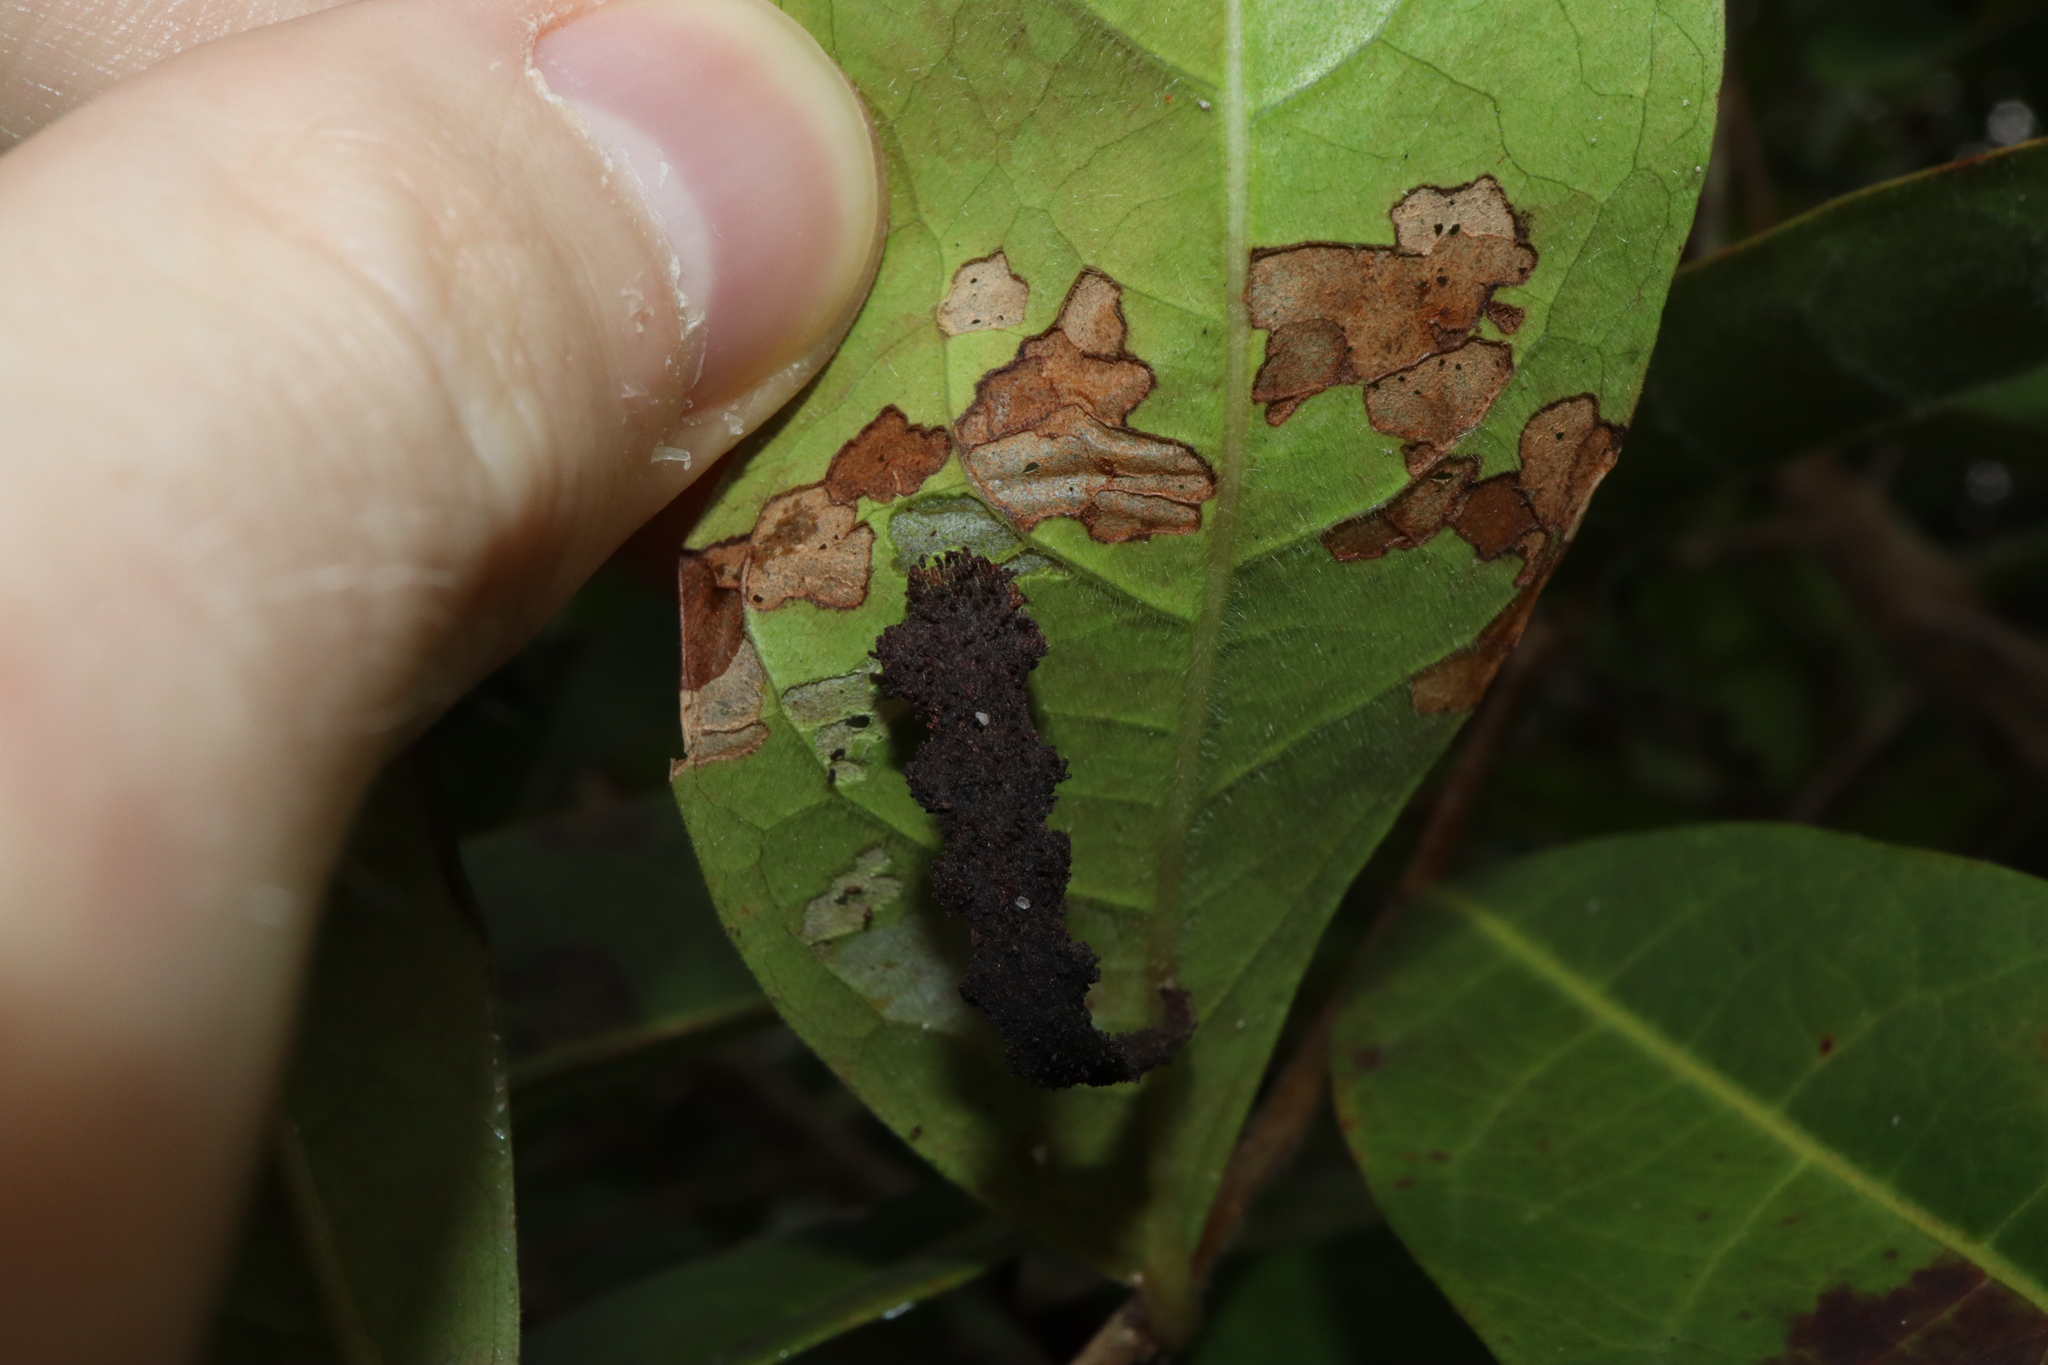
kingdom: Animalia
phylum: Arthropoda
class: Insecta
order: Lepidoptera
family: Pyralidae
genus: Stericta
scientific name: Stericta orchidivora
